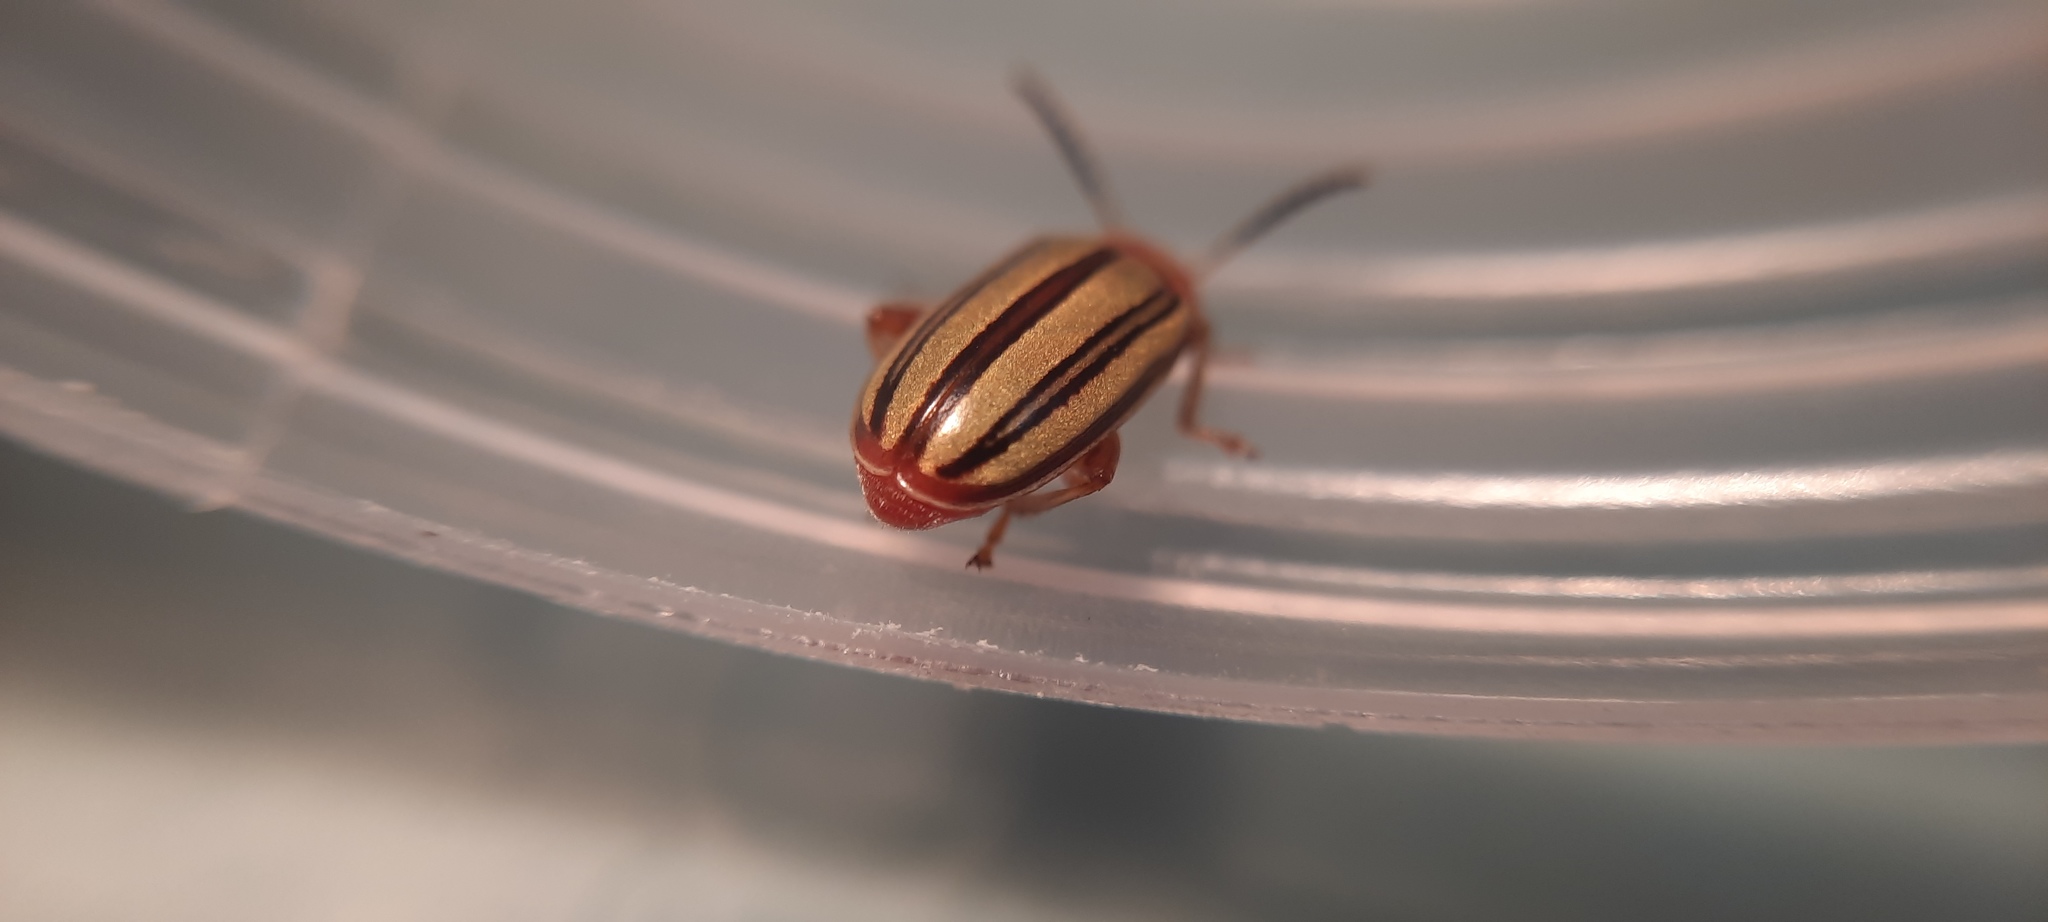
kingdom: Animalia
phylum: Arthropoda
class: Insecta
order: Coleoptera
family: Chrysomelidae
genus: Disonycha
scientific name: Disonycha
